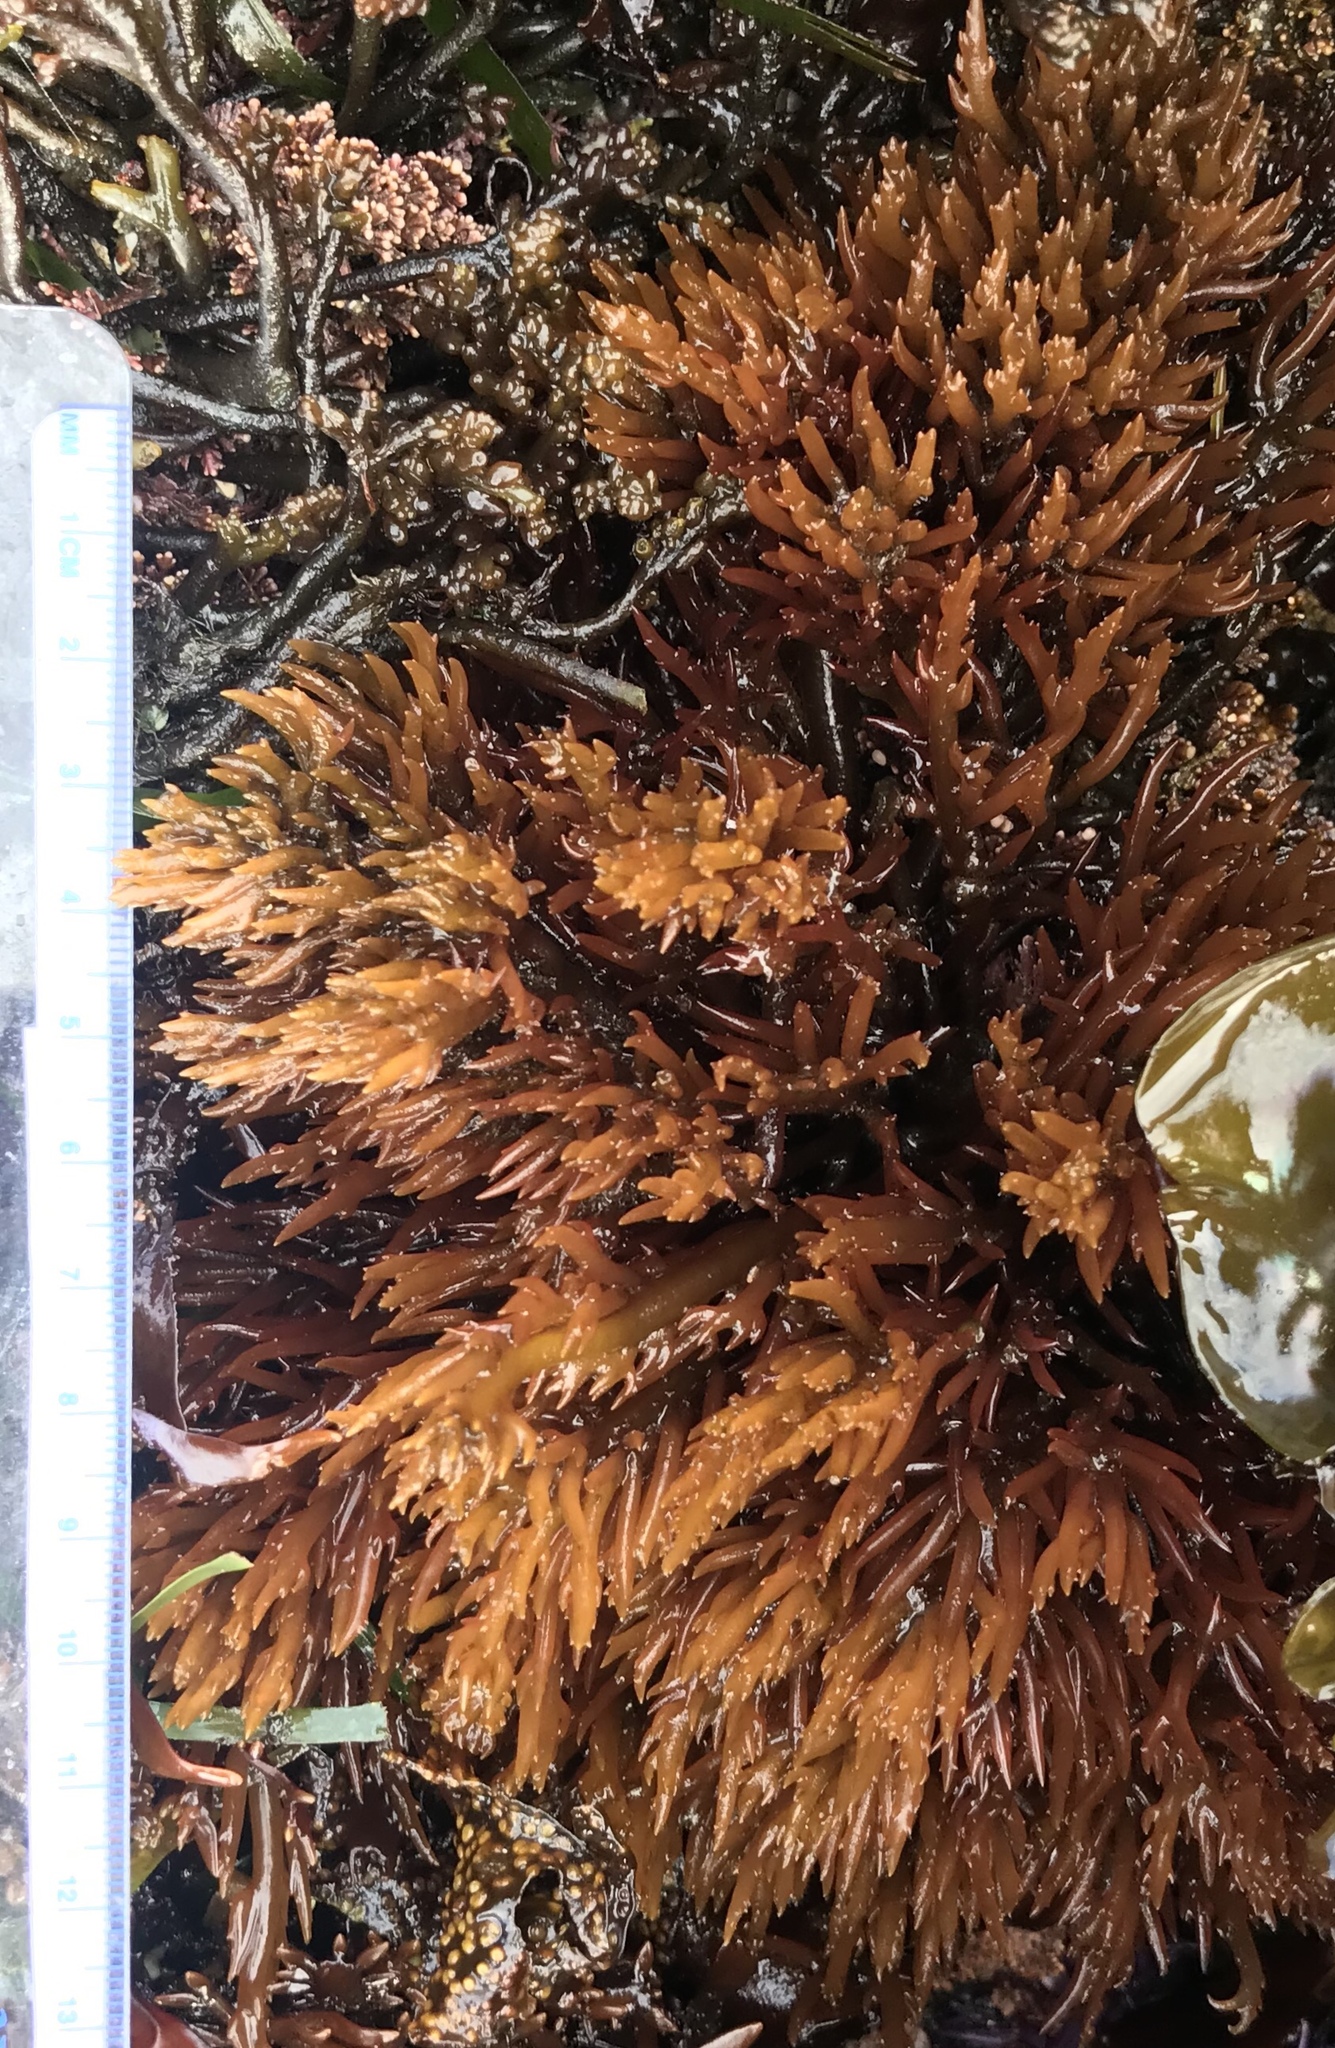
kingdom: Plantae
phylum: Rhodophyta
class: Florideophyceae
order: Gigartinales
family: Solieriaceae
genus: Sarcodiotheca
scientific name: Sarcodiotheca gaudichaudii
